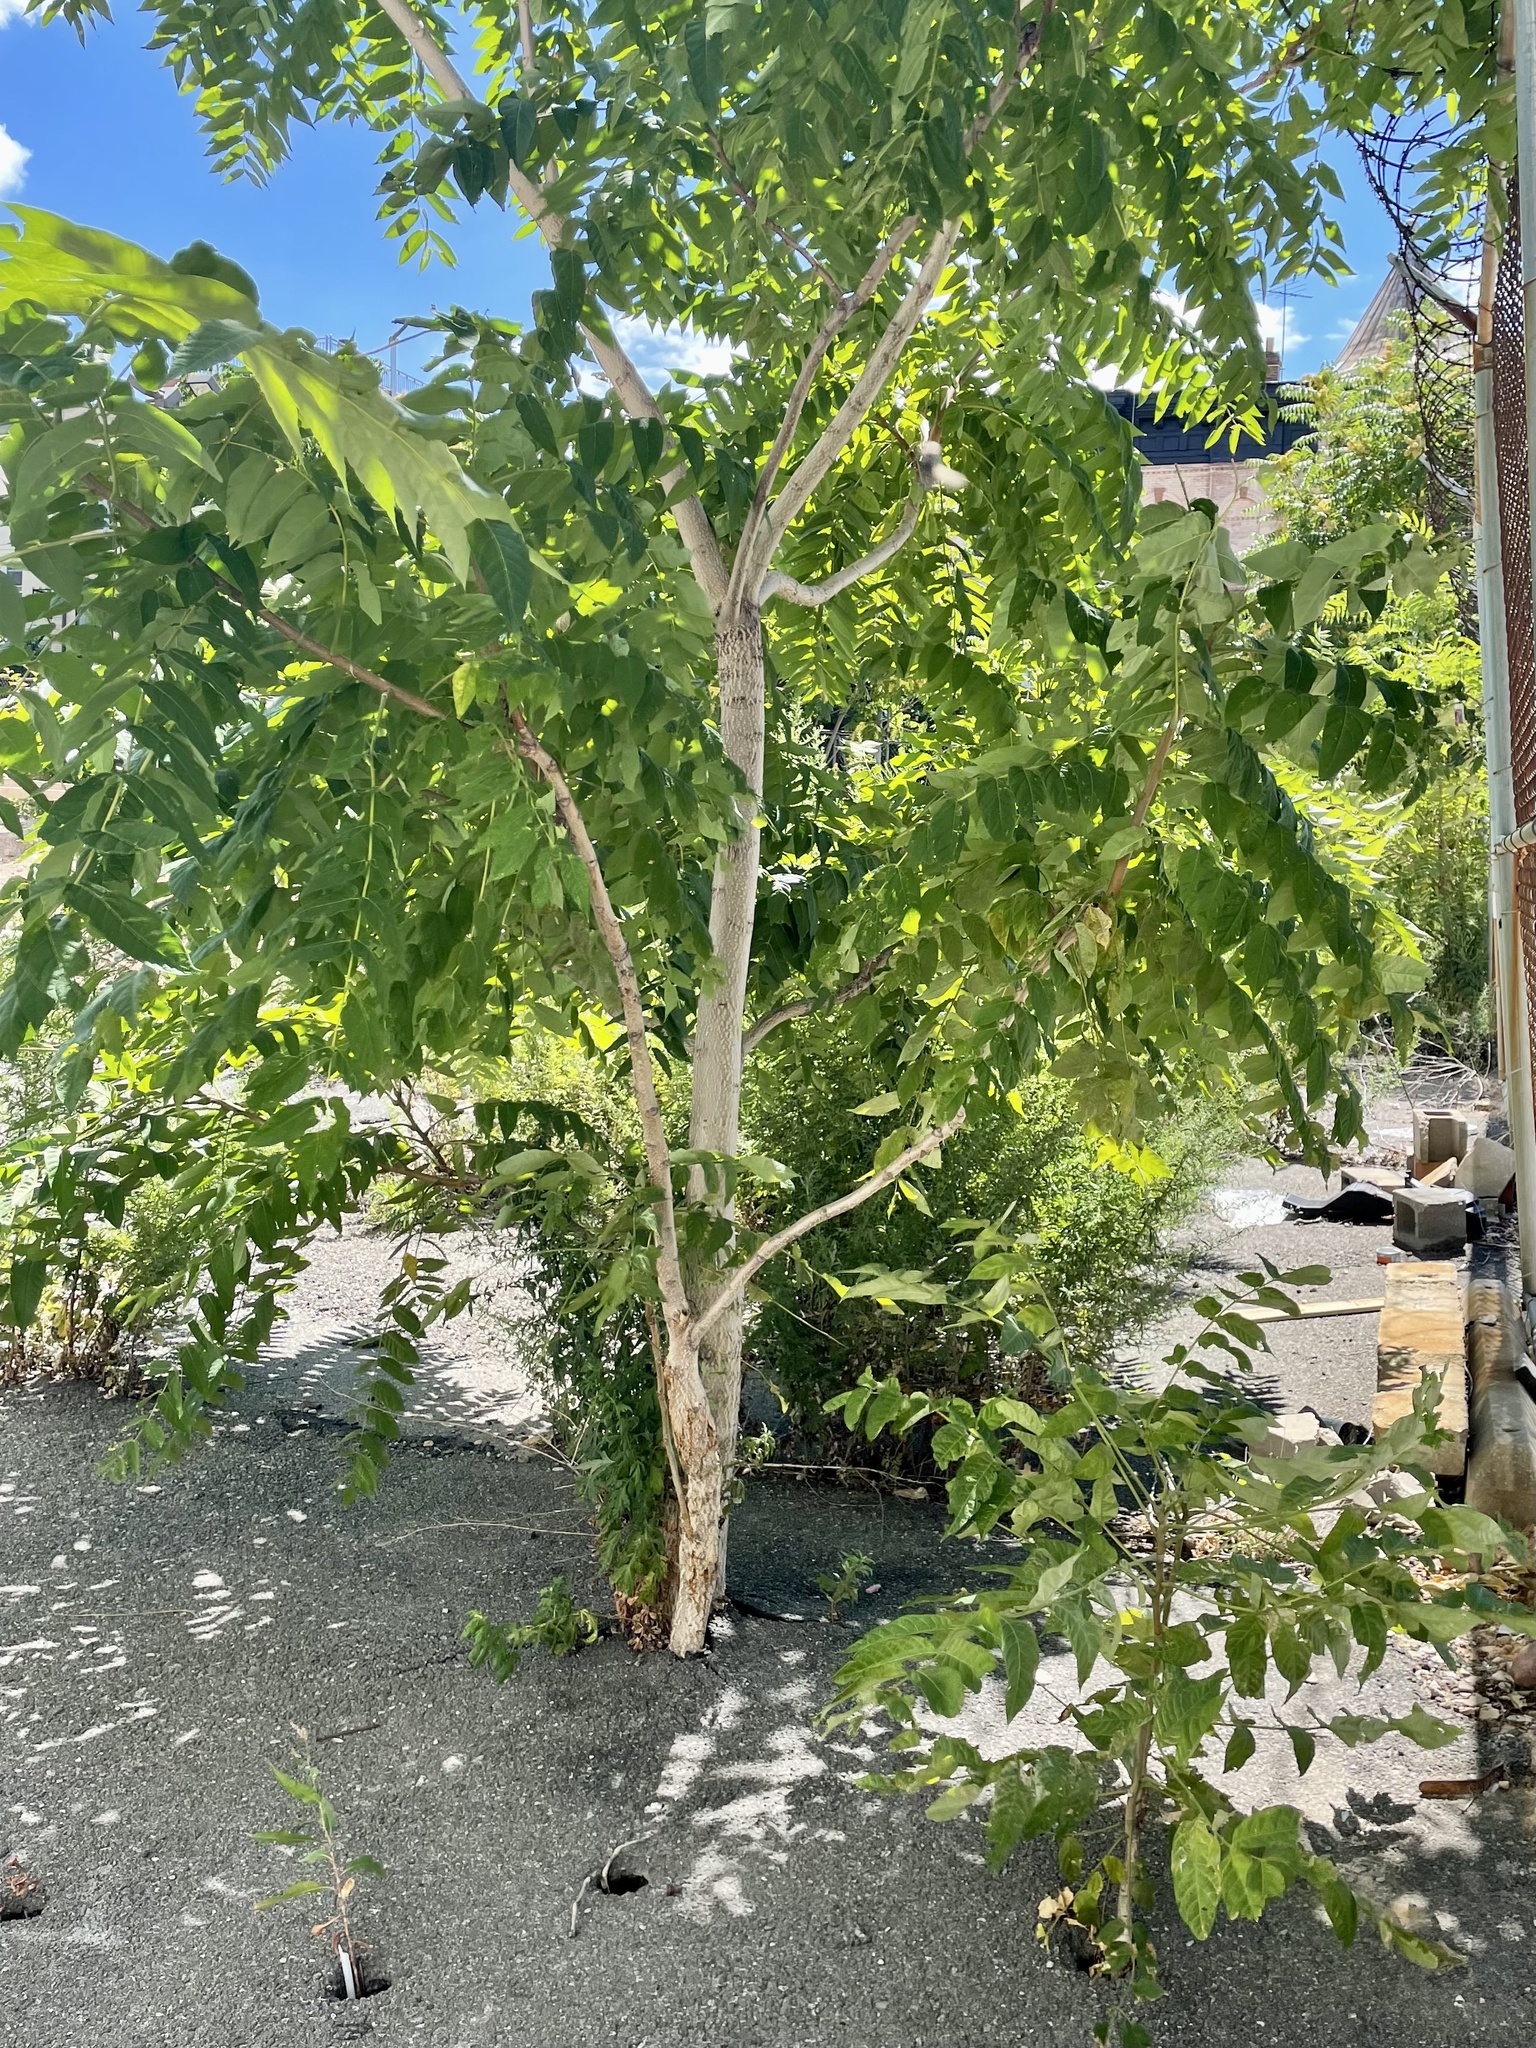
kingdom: Plantae
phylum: Tracheophyta
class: Magnoliopsida
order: Sapindales
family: Simaroubaceae
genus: Ailanthus
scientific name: Ailanthus altissima
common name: Tree-of-heaven
